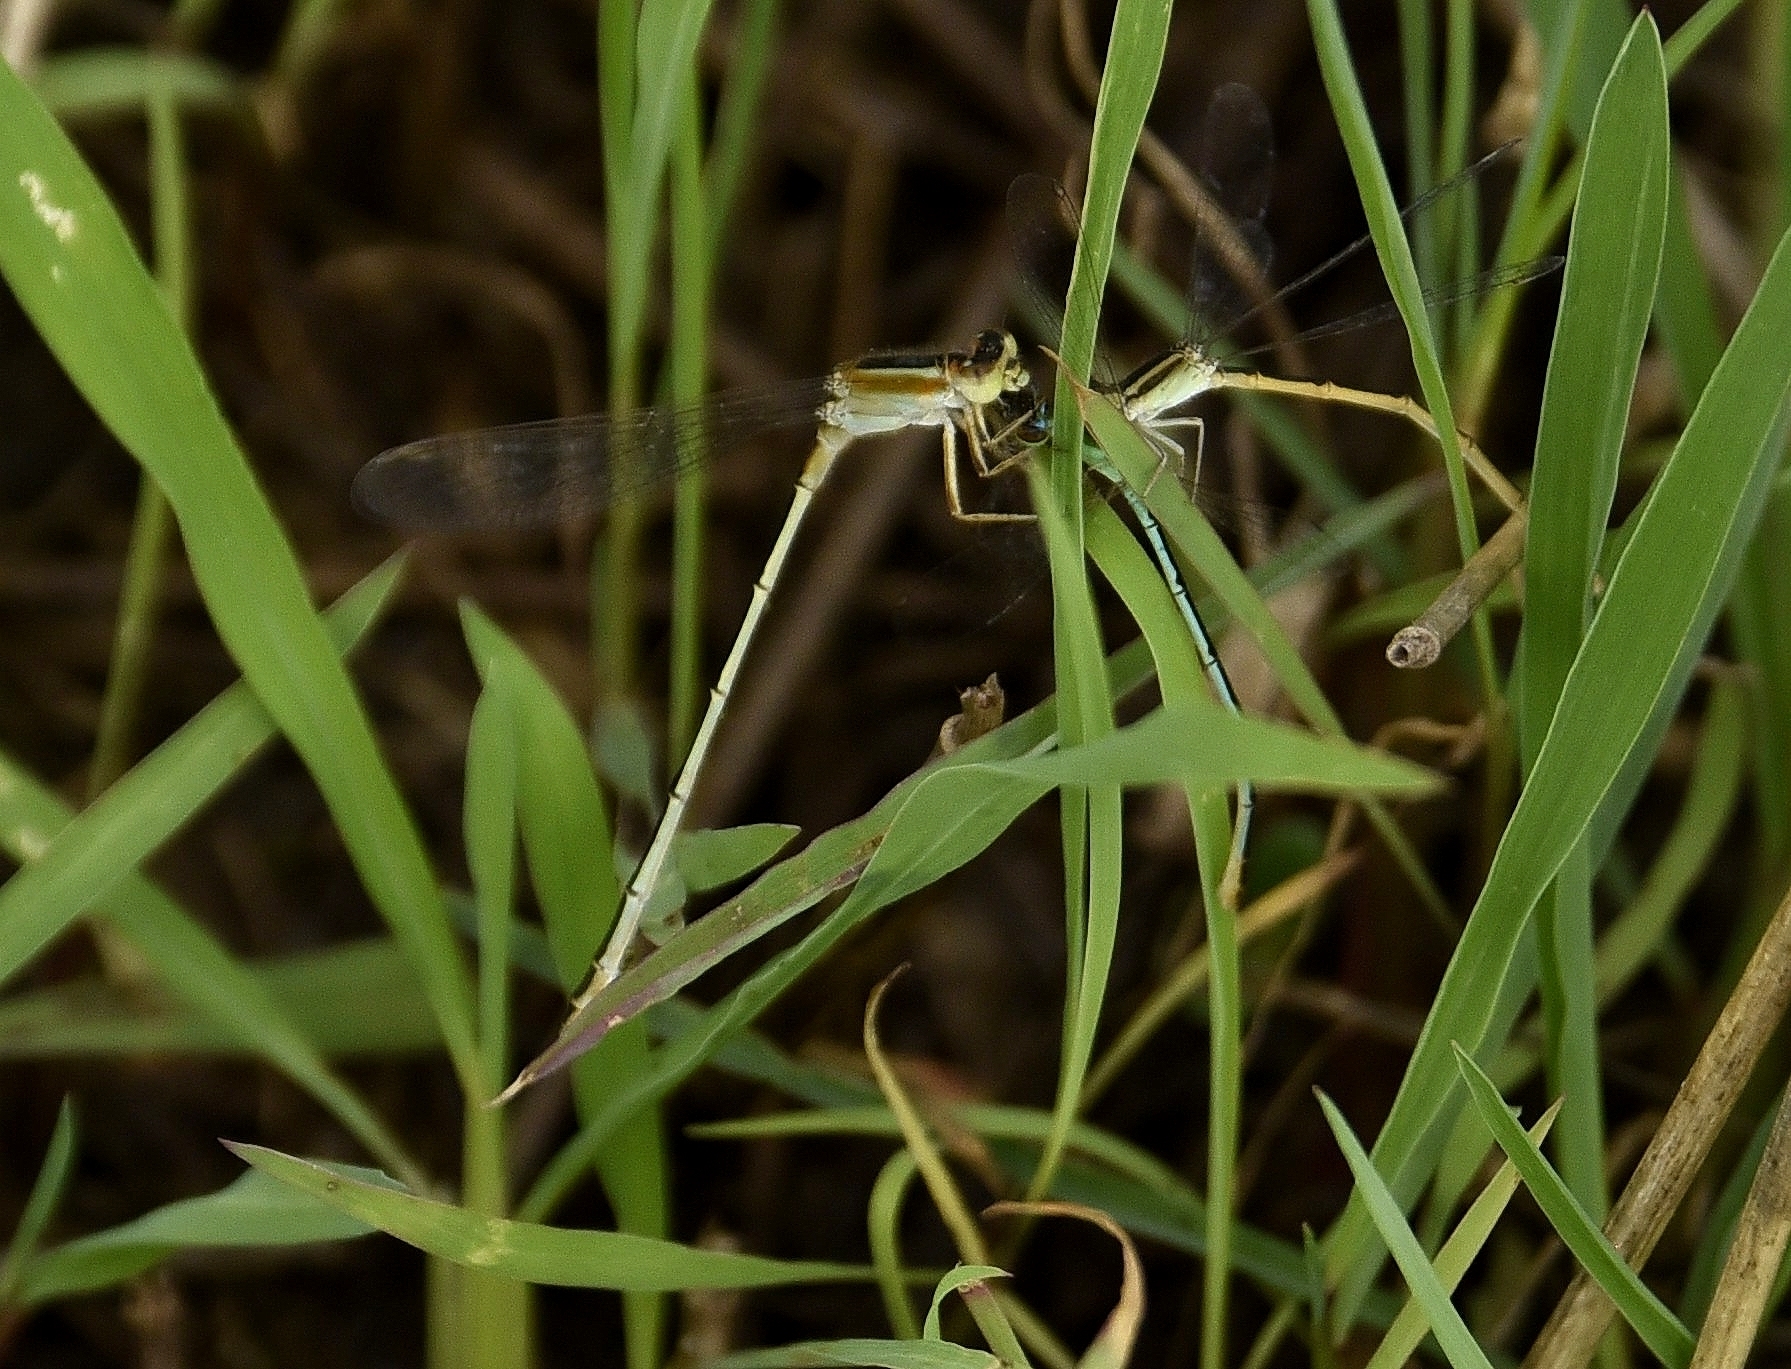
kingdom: Animalia
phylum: Arthropoda
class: Insecta
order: Odonata
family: Coenagrionidae
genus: Ischnura
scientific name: Ischnura senegalensis
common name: Tropical bluetail
